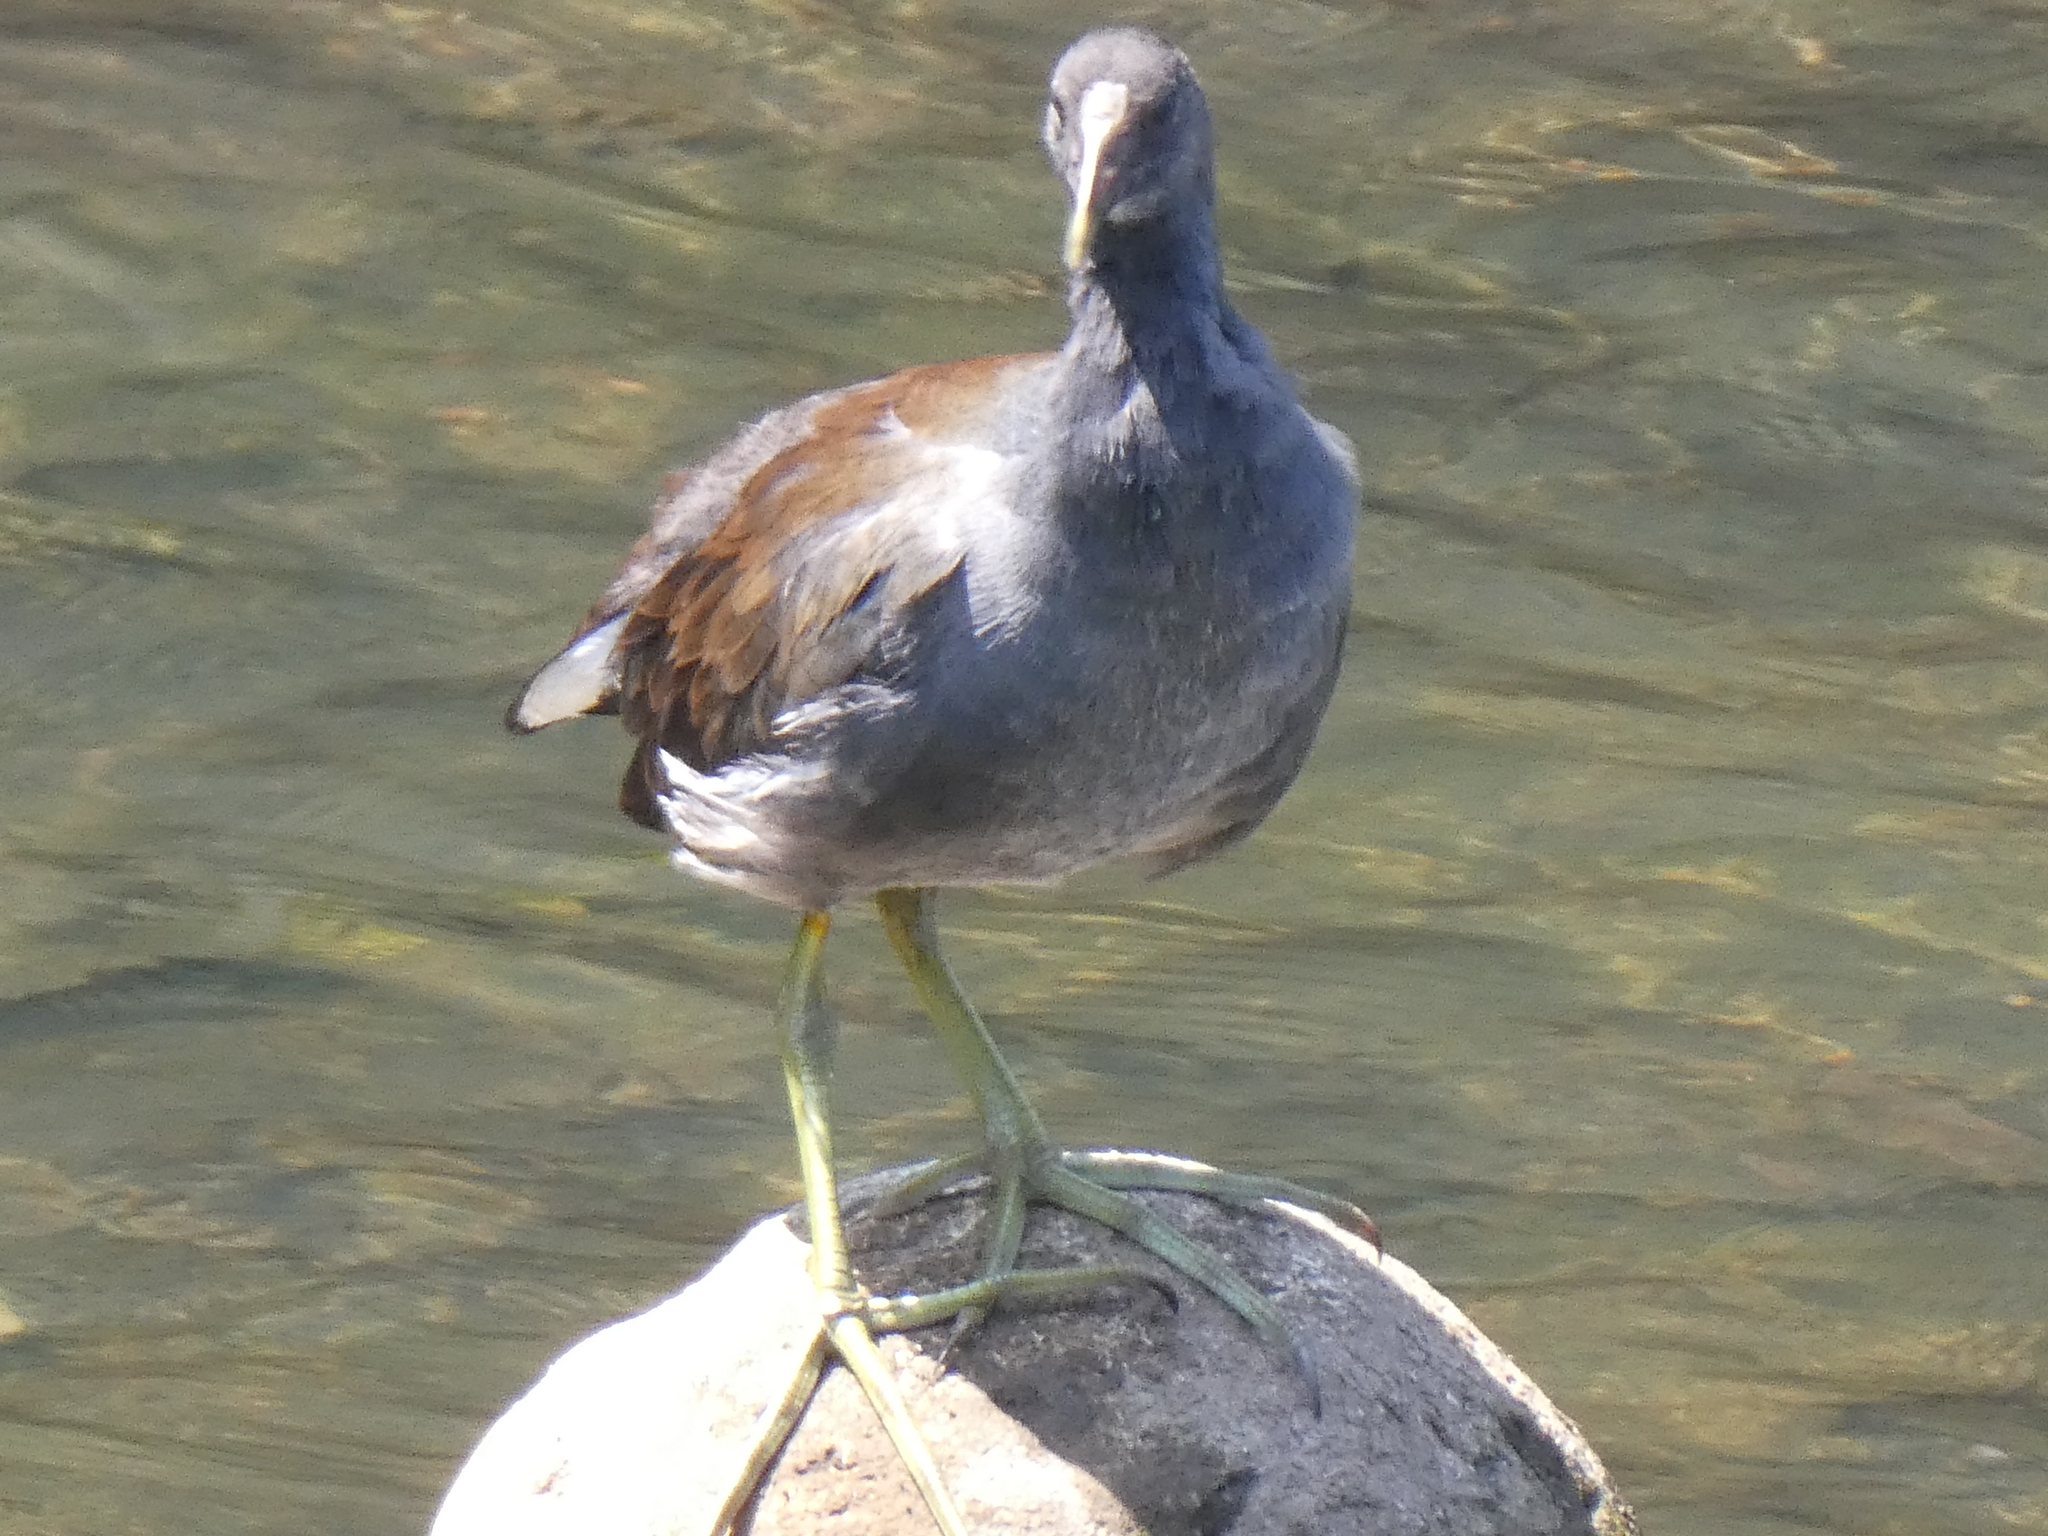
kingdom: Animalia
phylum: Chordata
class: Aves
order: Gruiformes
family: Rallidae
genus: Gallinula
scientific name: Gallinula chloropus
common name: Common moorhen
